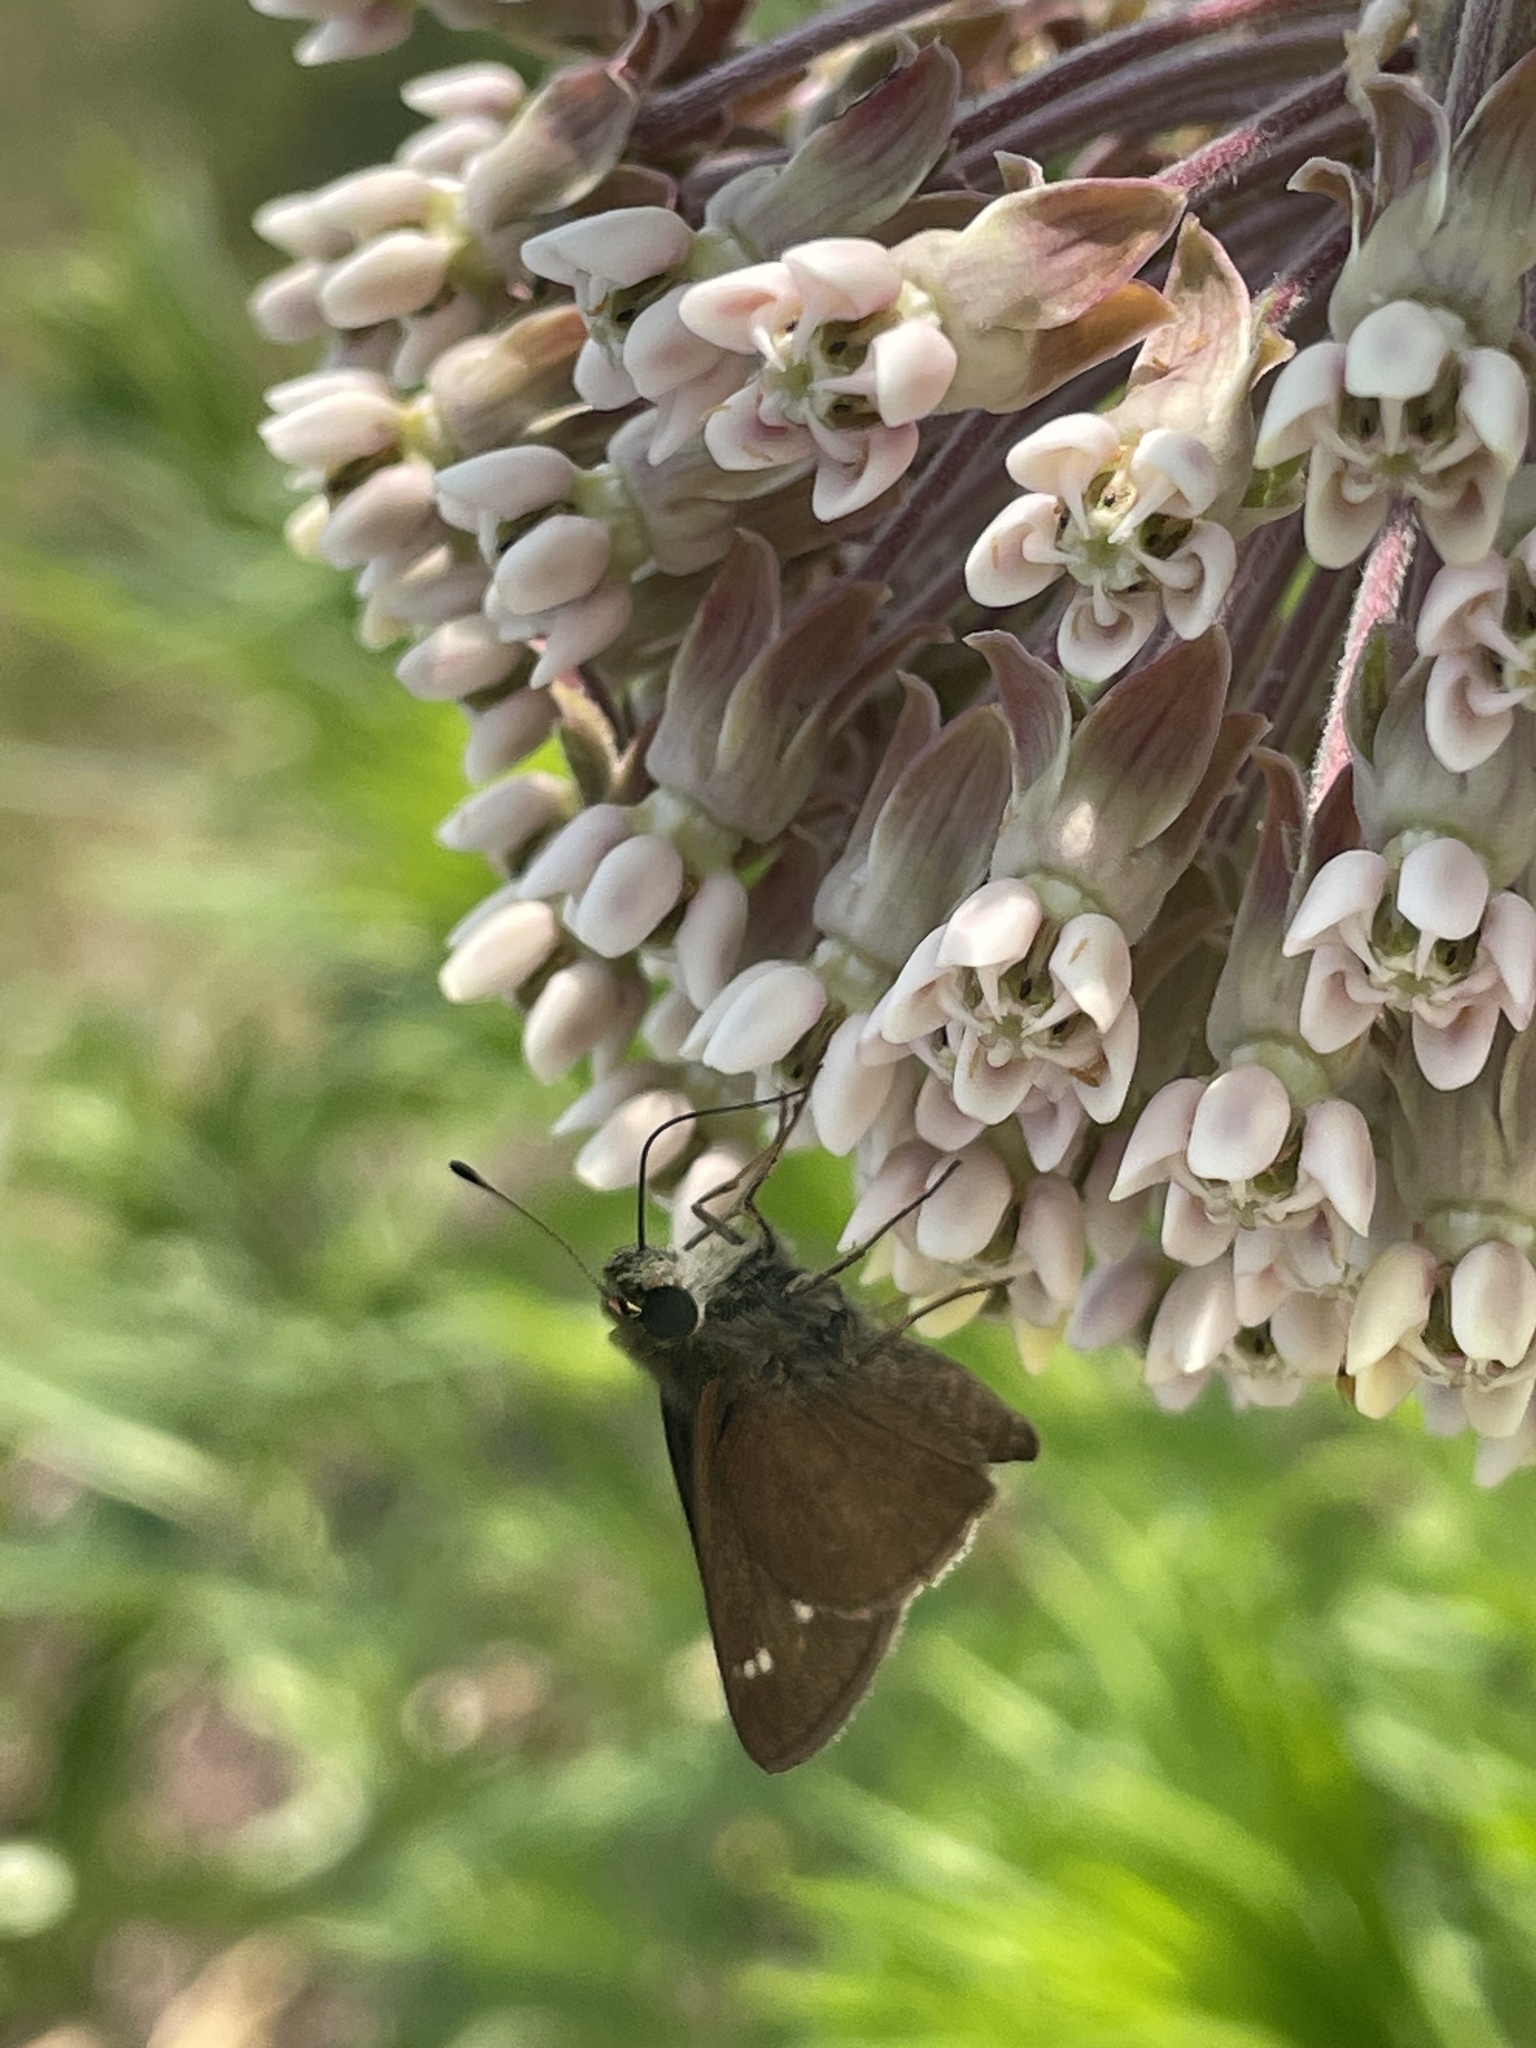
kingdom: Animalia
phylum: Arthropoda
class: Insecta
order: Lepidoptera
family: Hesperiidae
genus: Vernia
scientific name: Vernia verna
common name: Little glassywing
